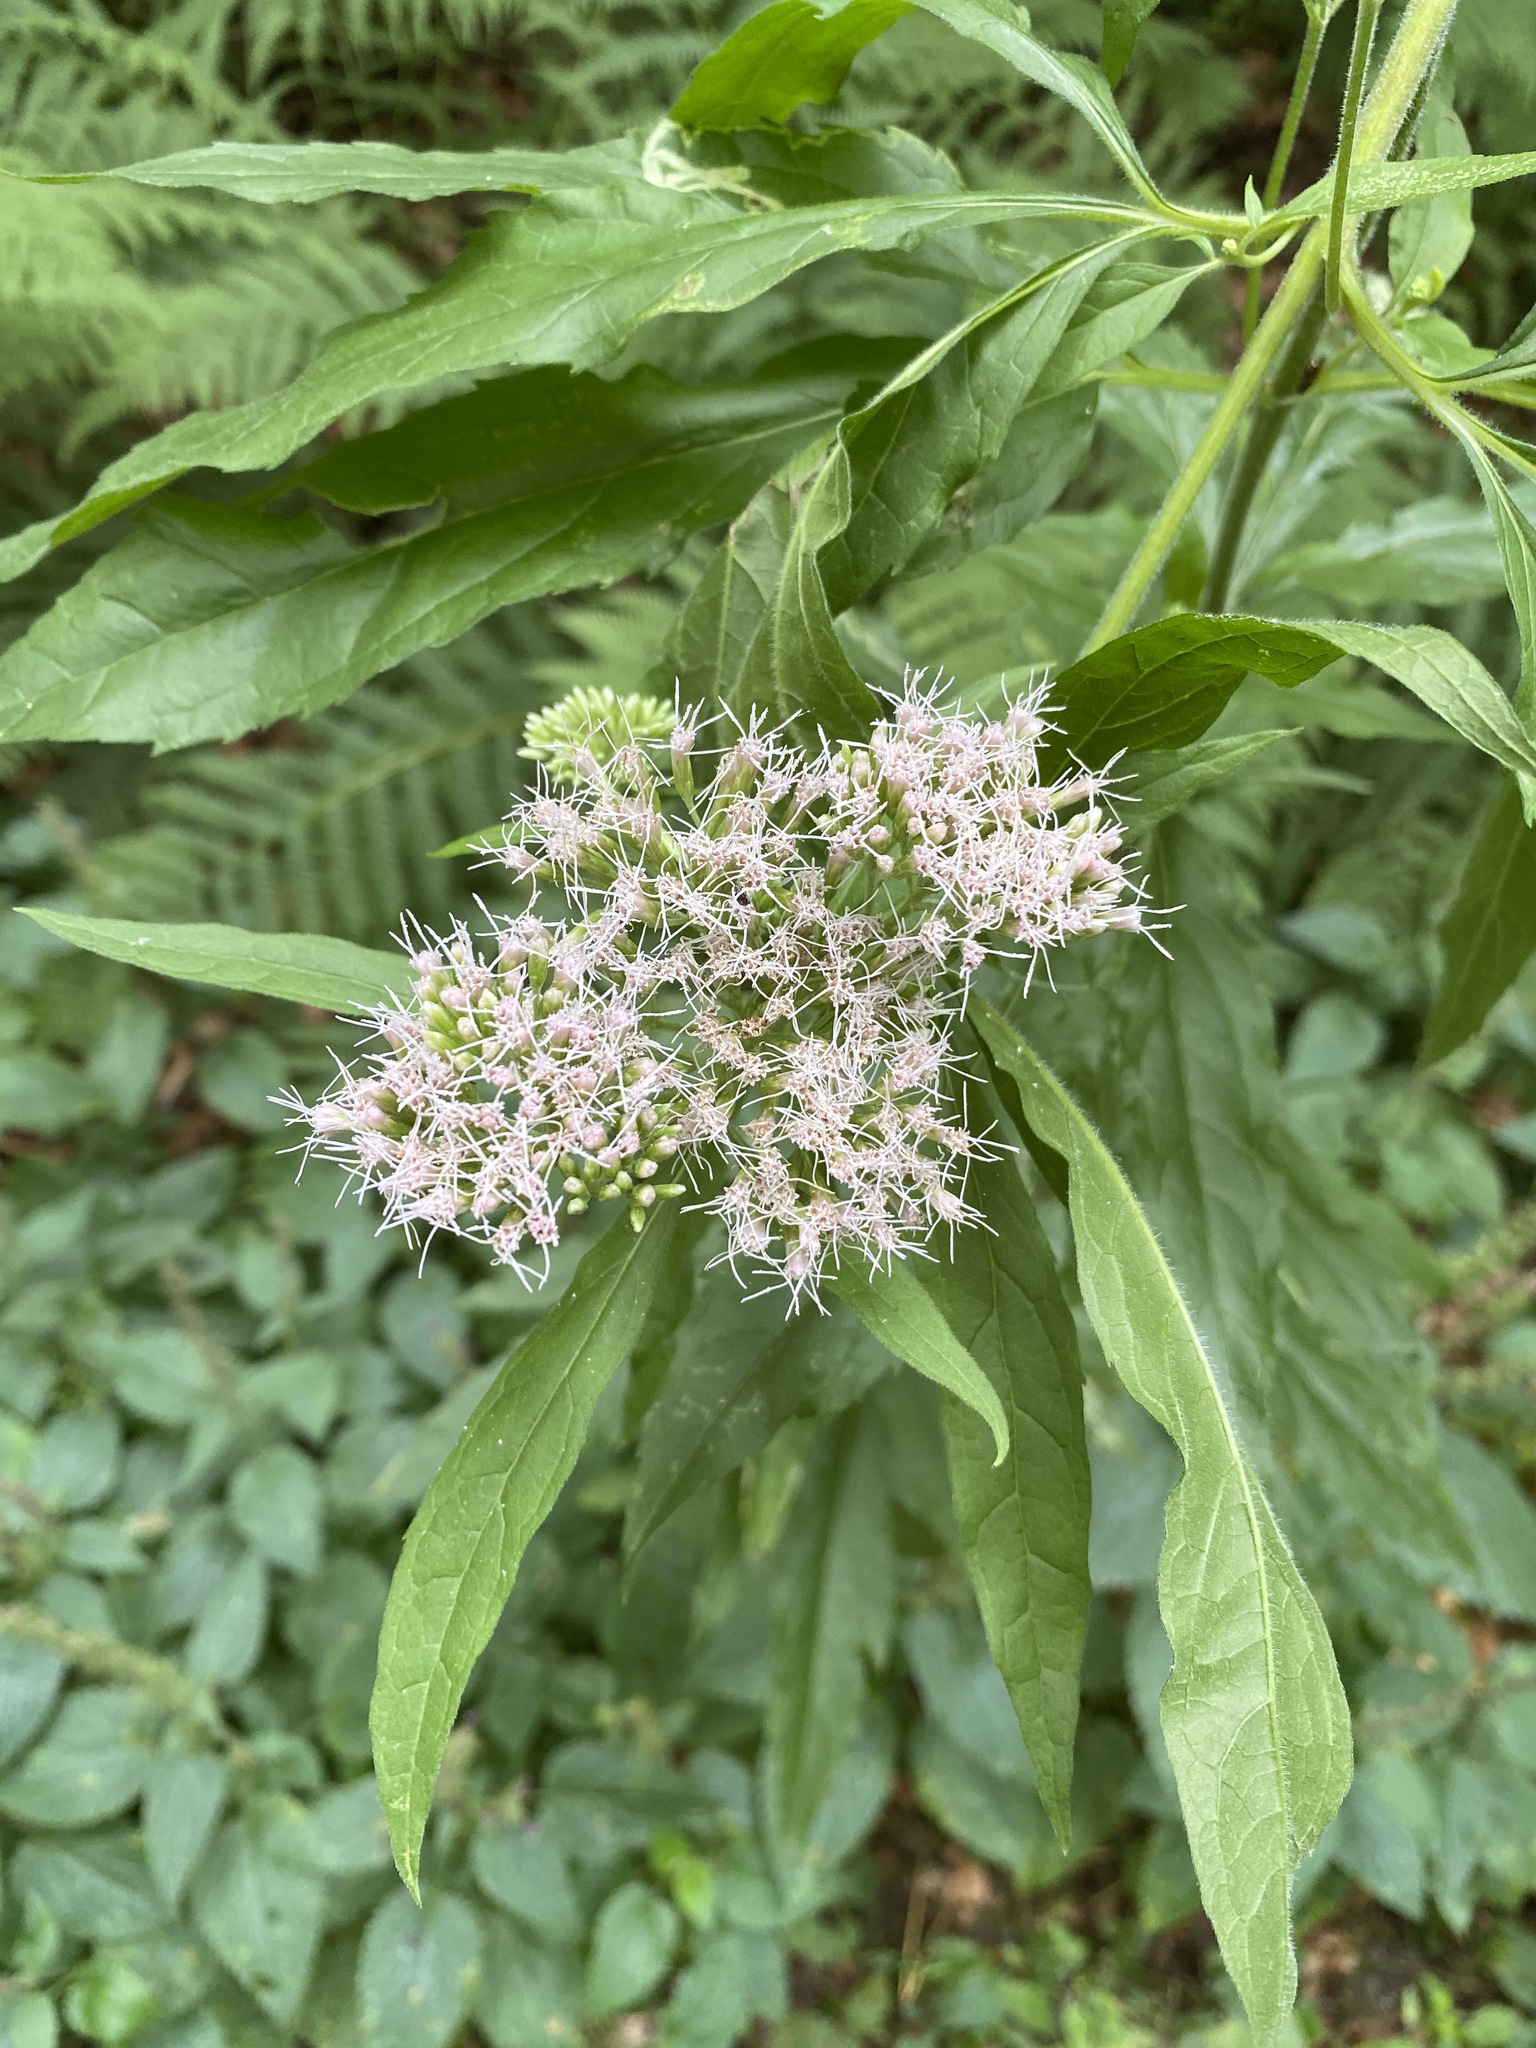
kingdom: Plantae
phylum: Tracheophyta
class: Magnoliopsida
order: Asterales
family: Asteraceae
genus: Eupatorium
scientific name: Eupatorium cannabinum
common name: Hemp-agrimony
